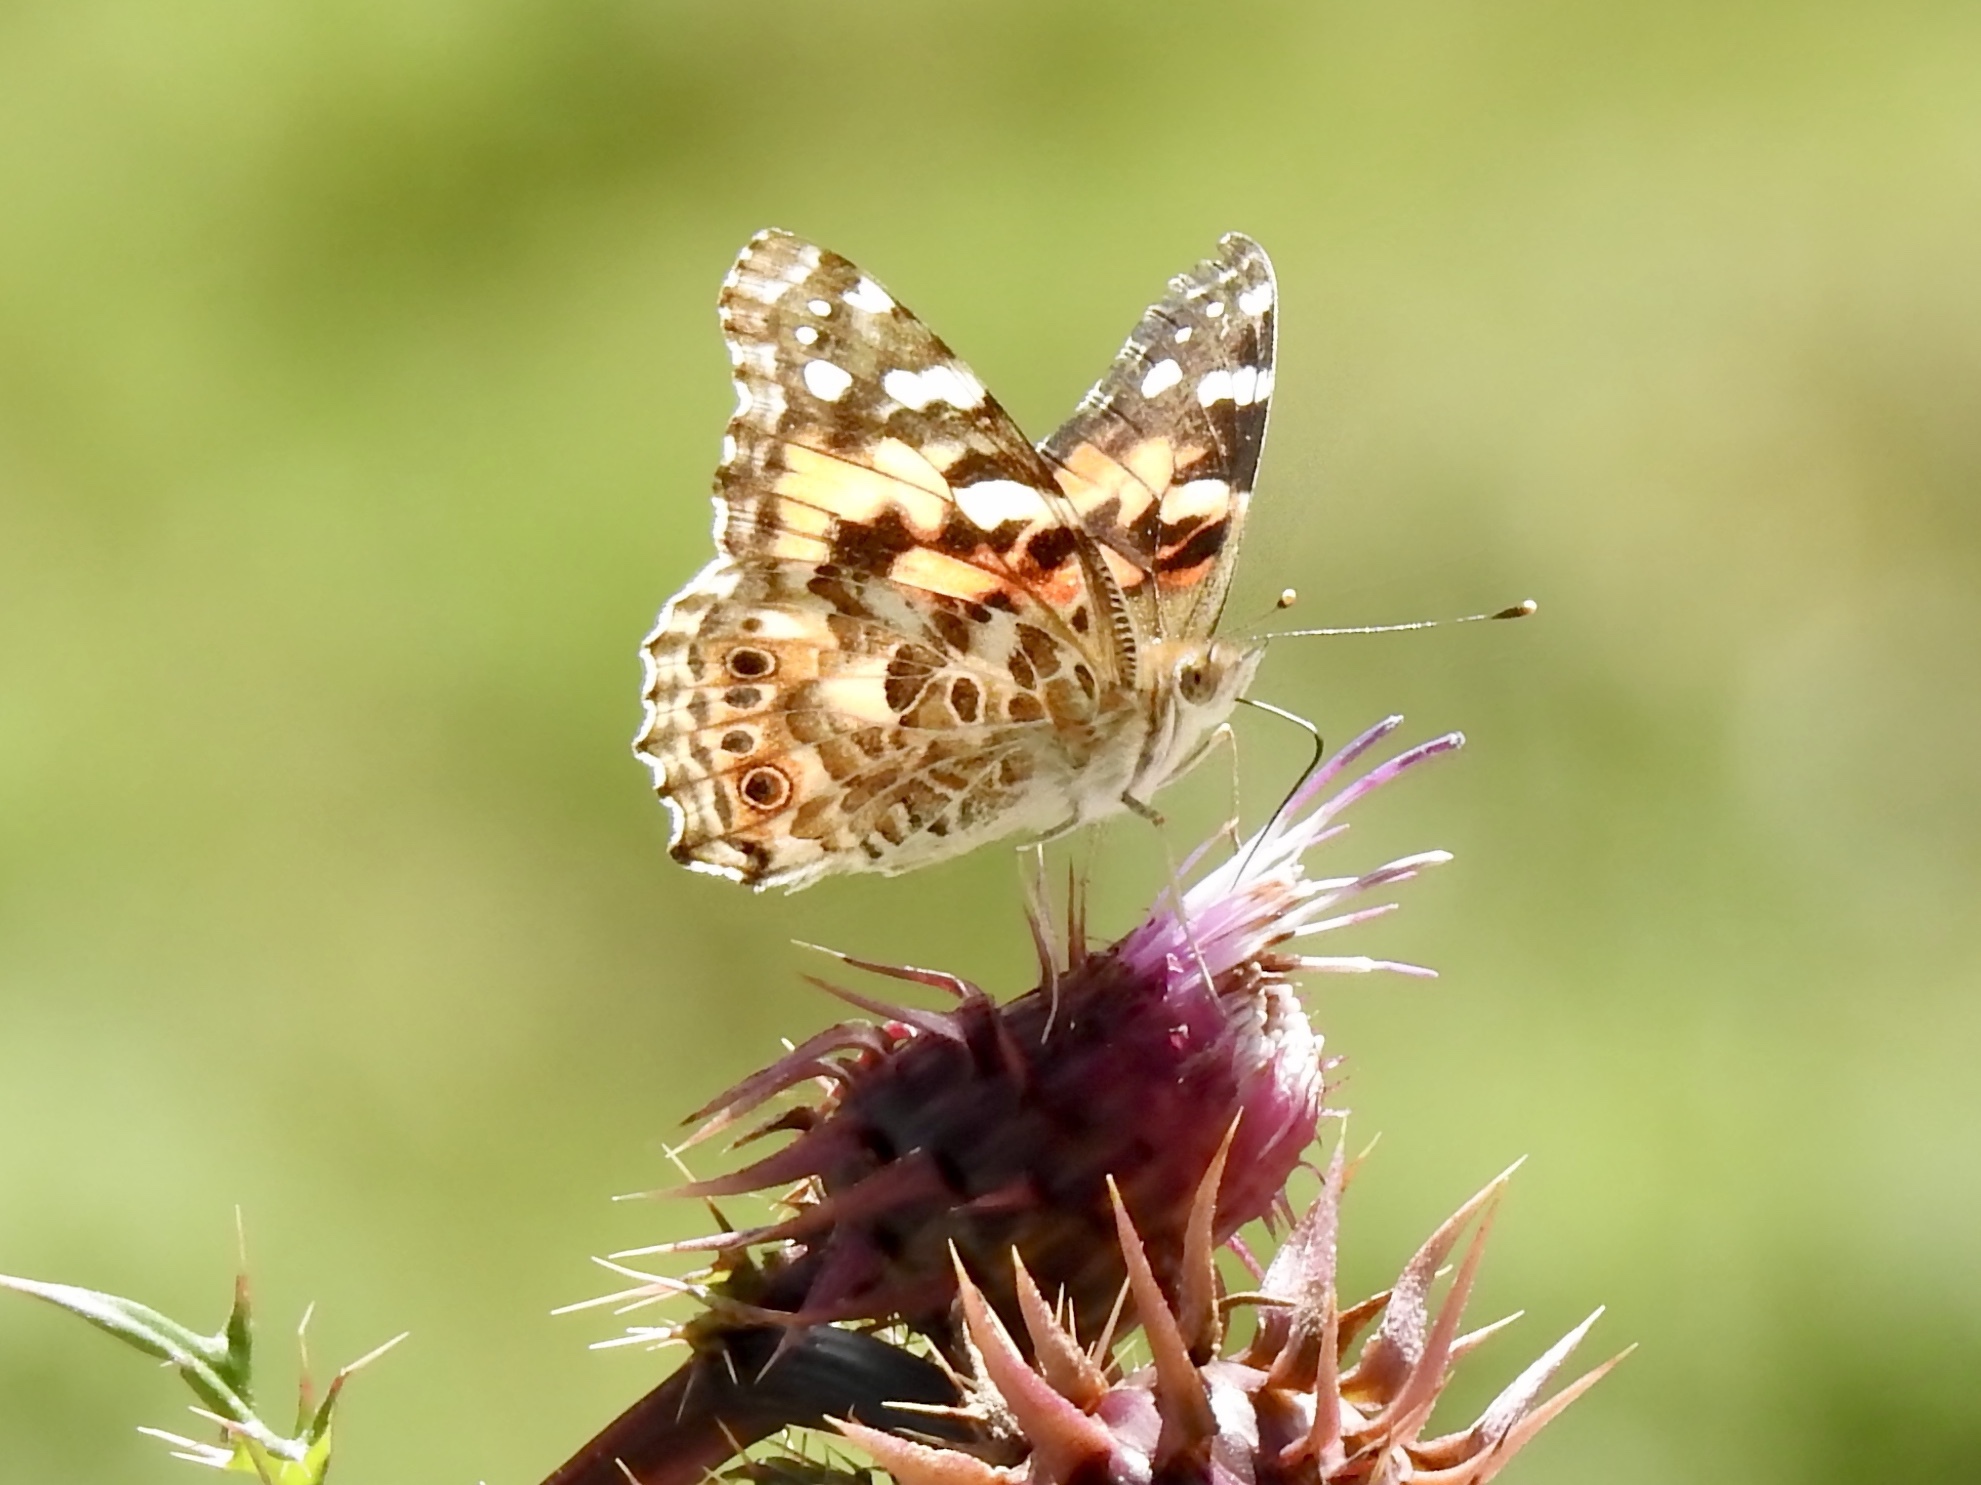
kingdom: Animalia
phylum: Arthropoda
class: Insecta
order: Lepidoptera
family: Nymphalidae
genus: Vanessa
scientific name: Vanessa cardui
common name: Painted lady
